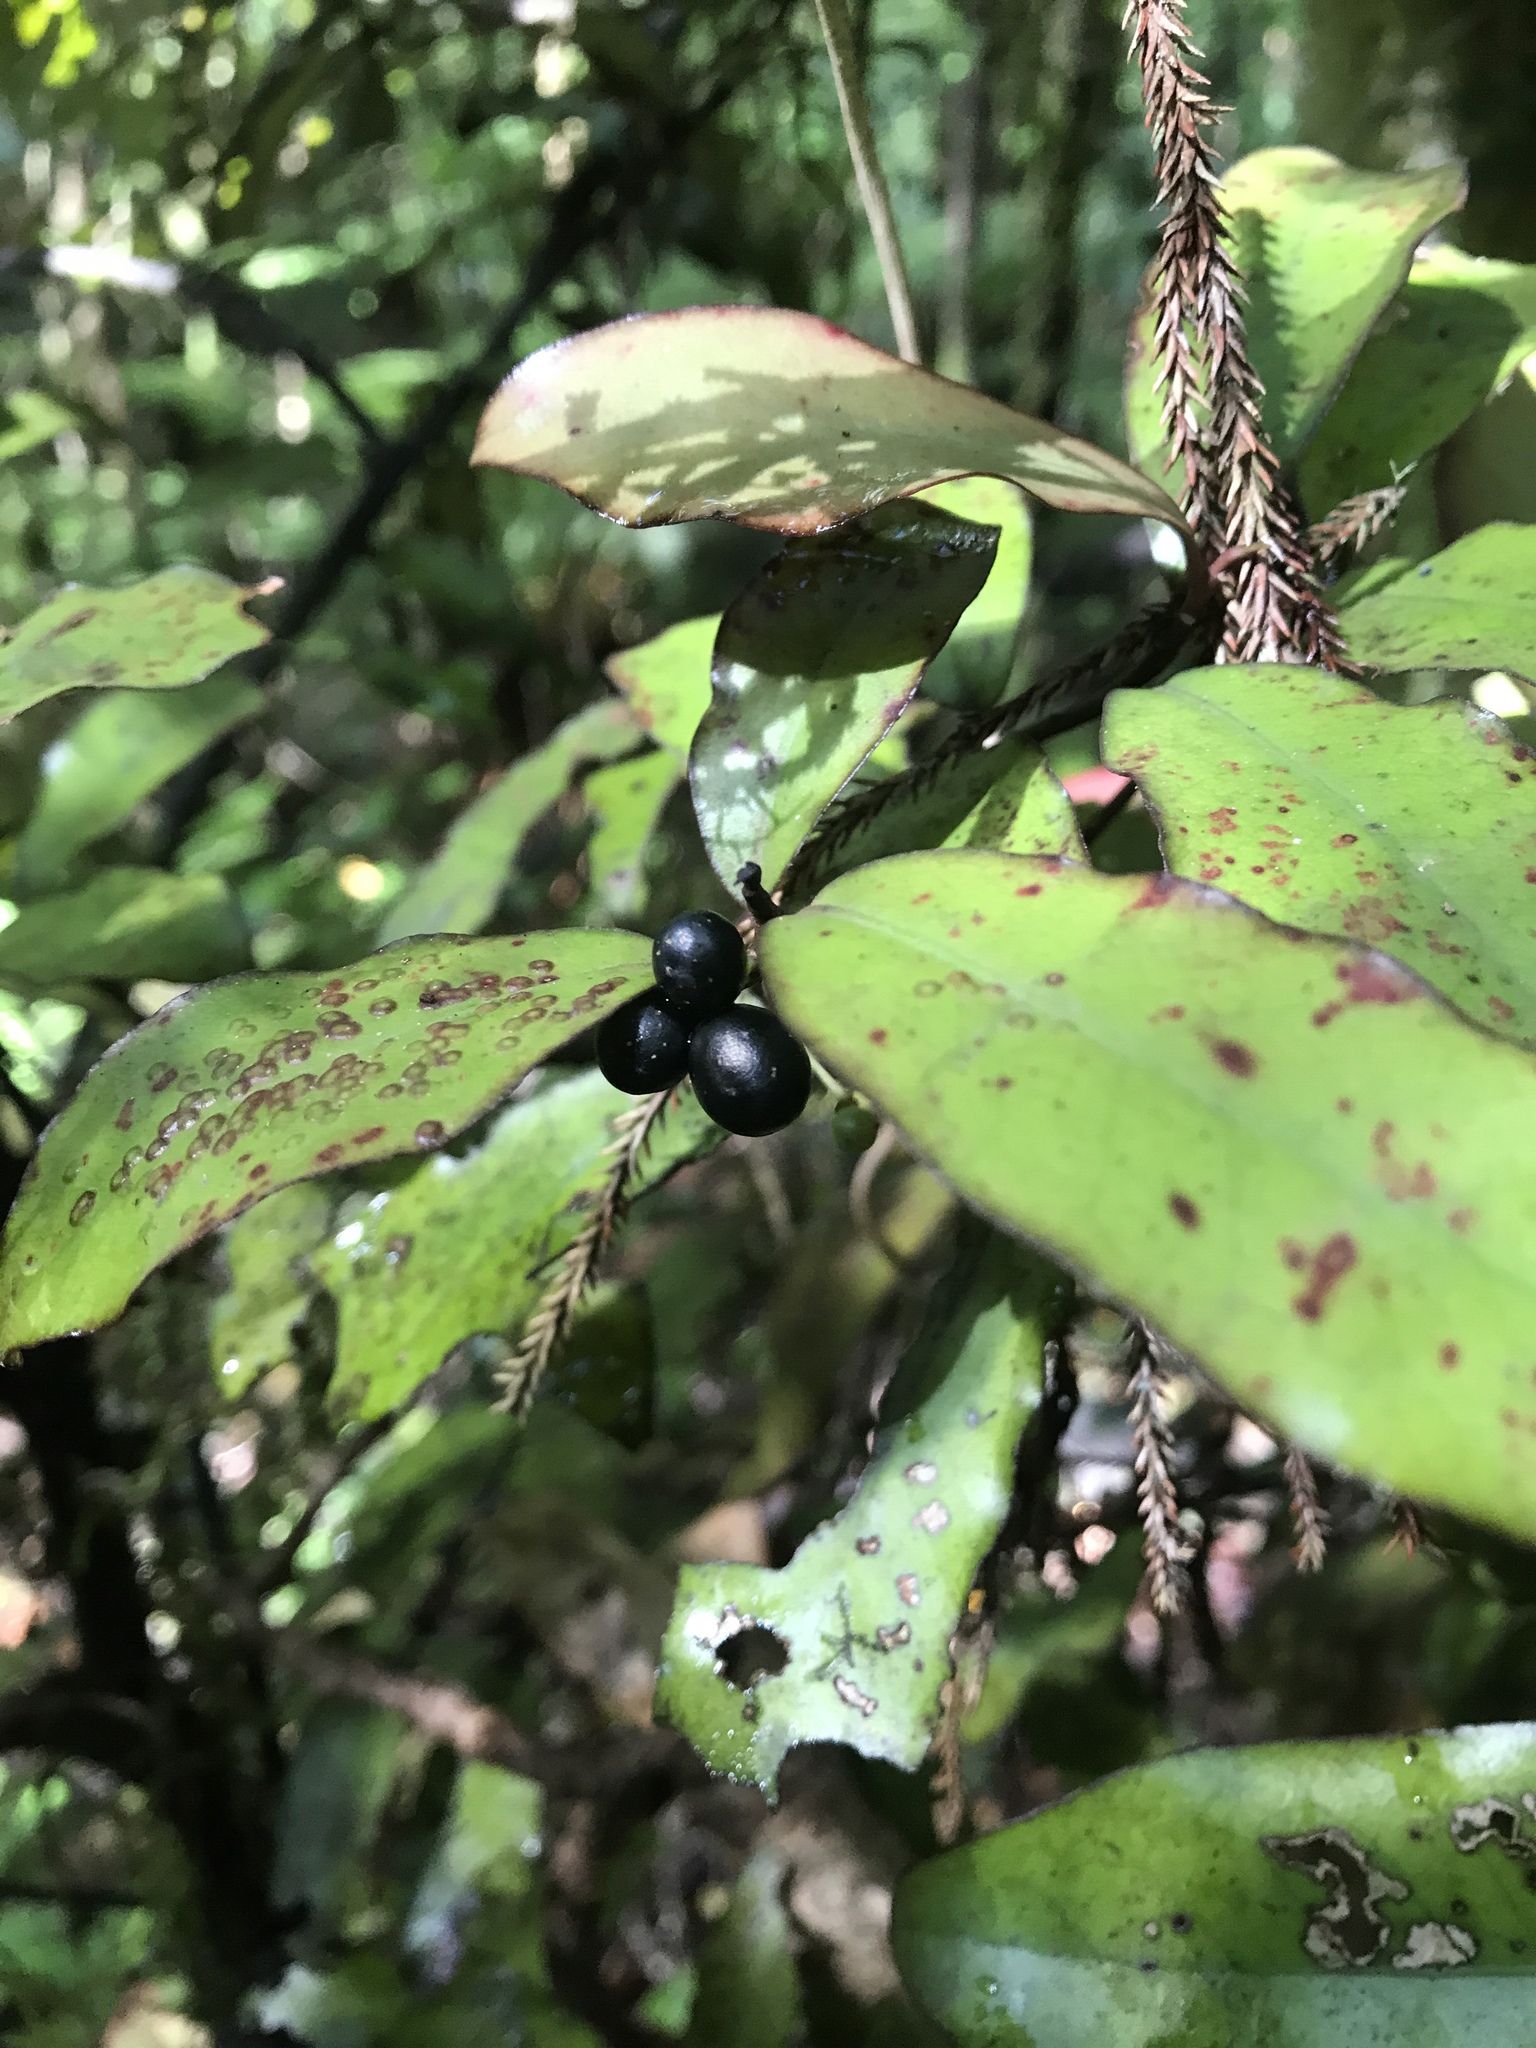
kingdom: Plantae
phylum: Tracheophyta
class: Magnoliopsida
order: Canellales
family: Winteraceae
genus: Pseudowintera
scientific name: Pseudowintera colorata
